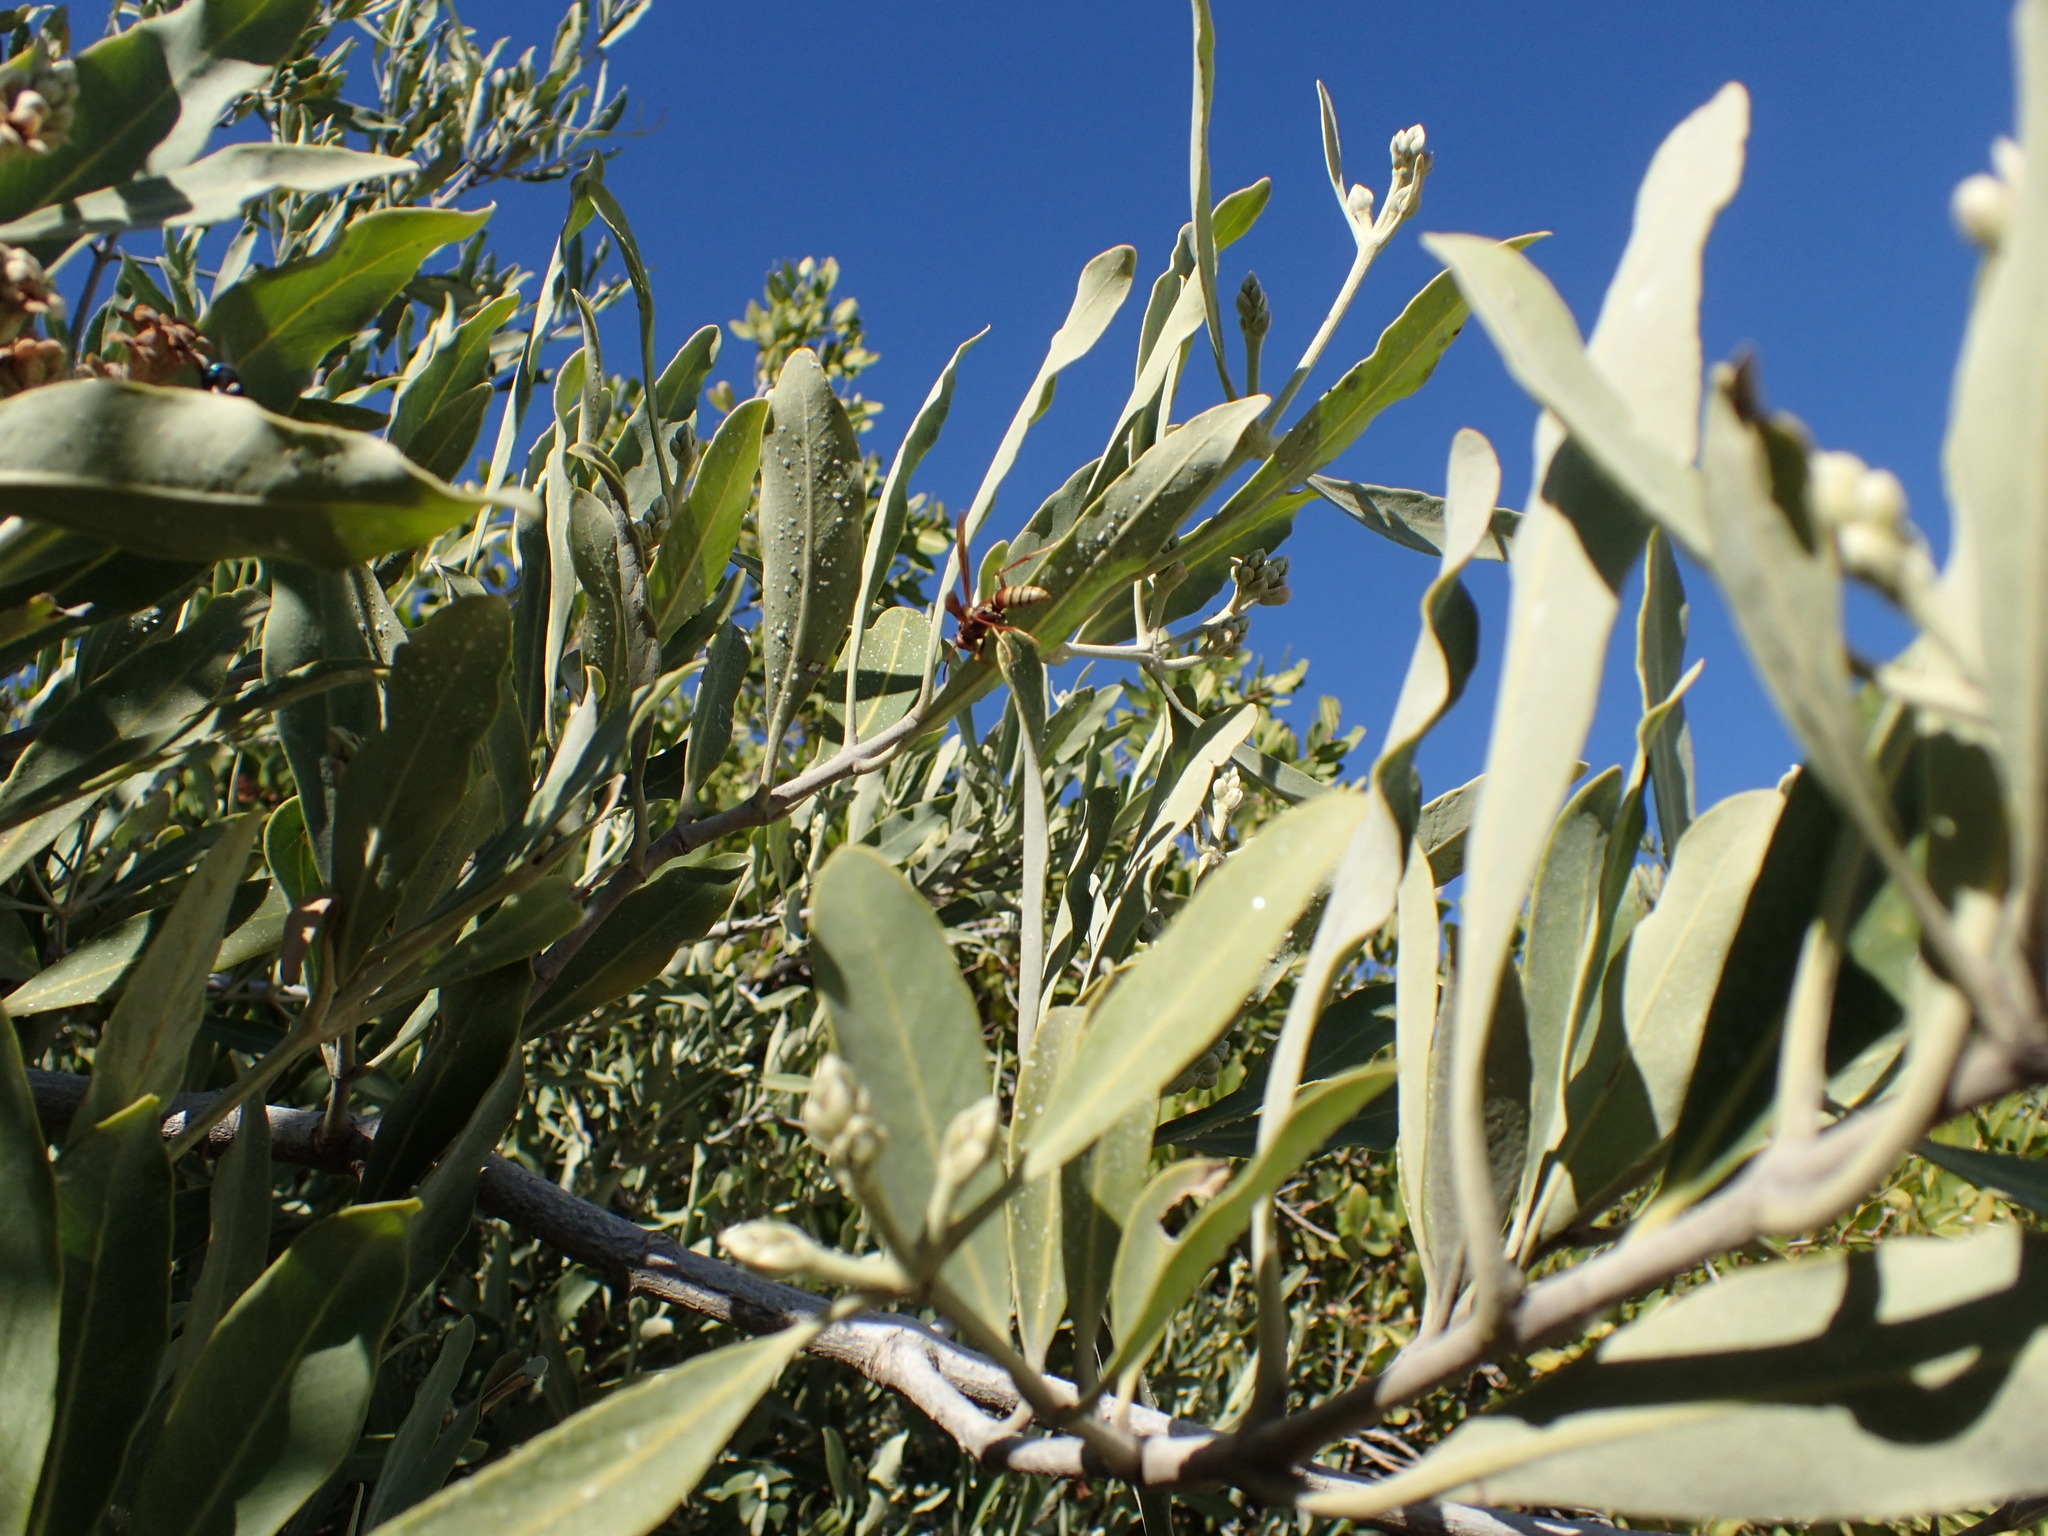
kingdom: Plantae
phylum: Tracheophyta
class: Magnoliopsida
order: Lamiales
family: Acanthaceae
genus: Avicennia
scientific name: Avicennia germinans
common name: Black mangrove
